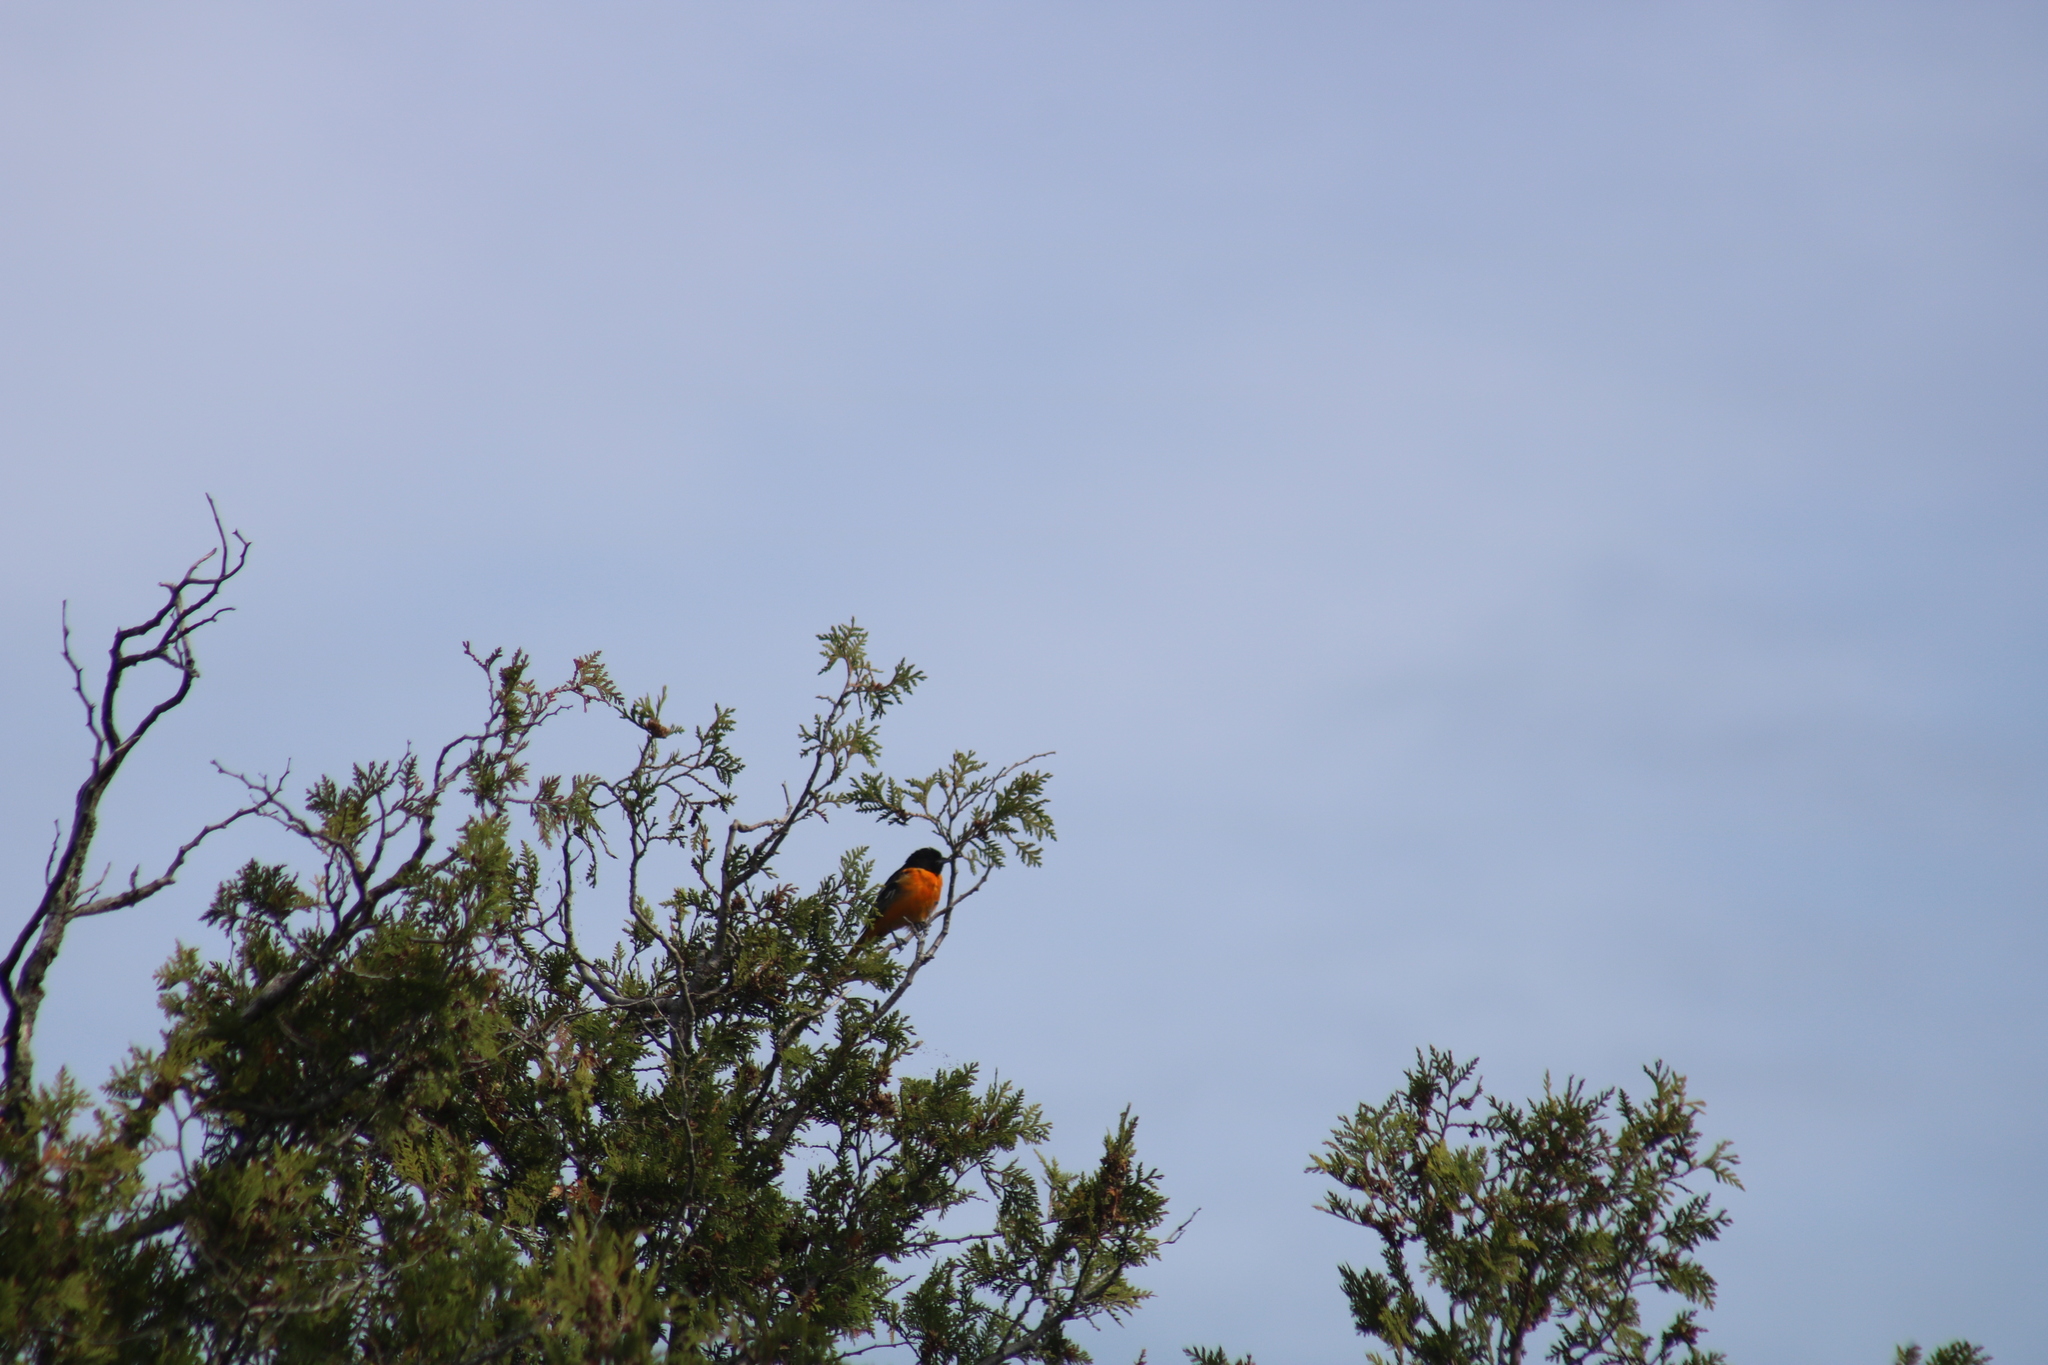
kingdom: Animalia
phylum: Chordata
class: Aves
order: Passeriformes
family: Icteridae
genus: Icterus
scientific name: Icterus galbula
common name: Baltimore oriole
